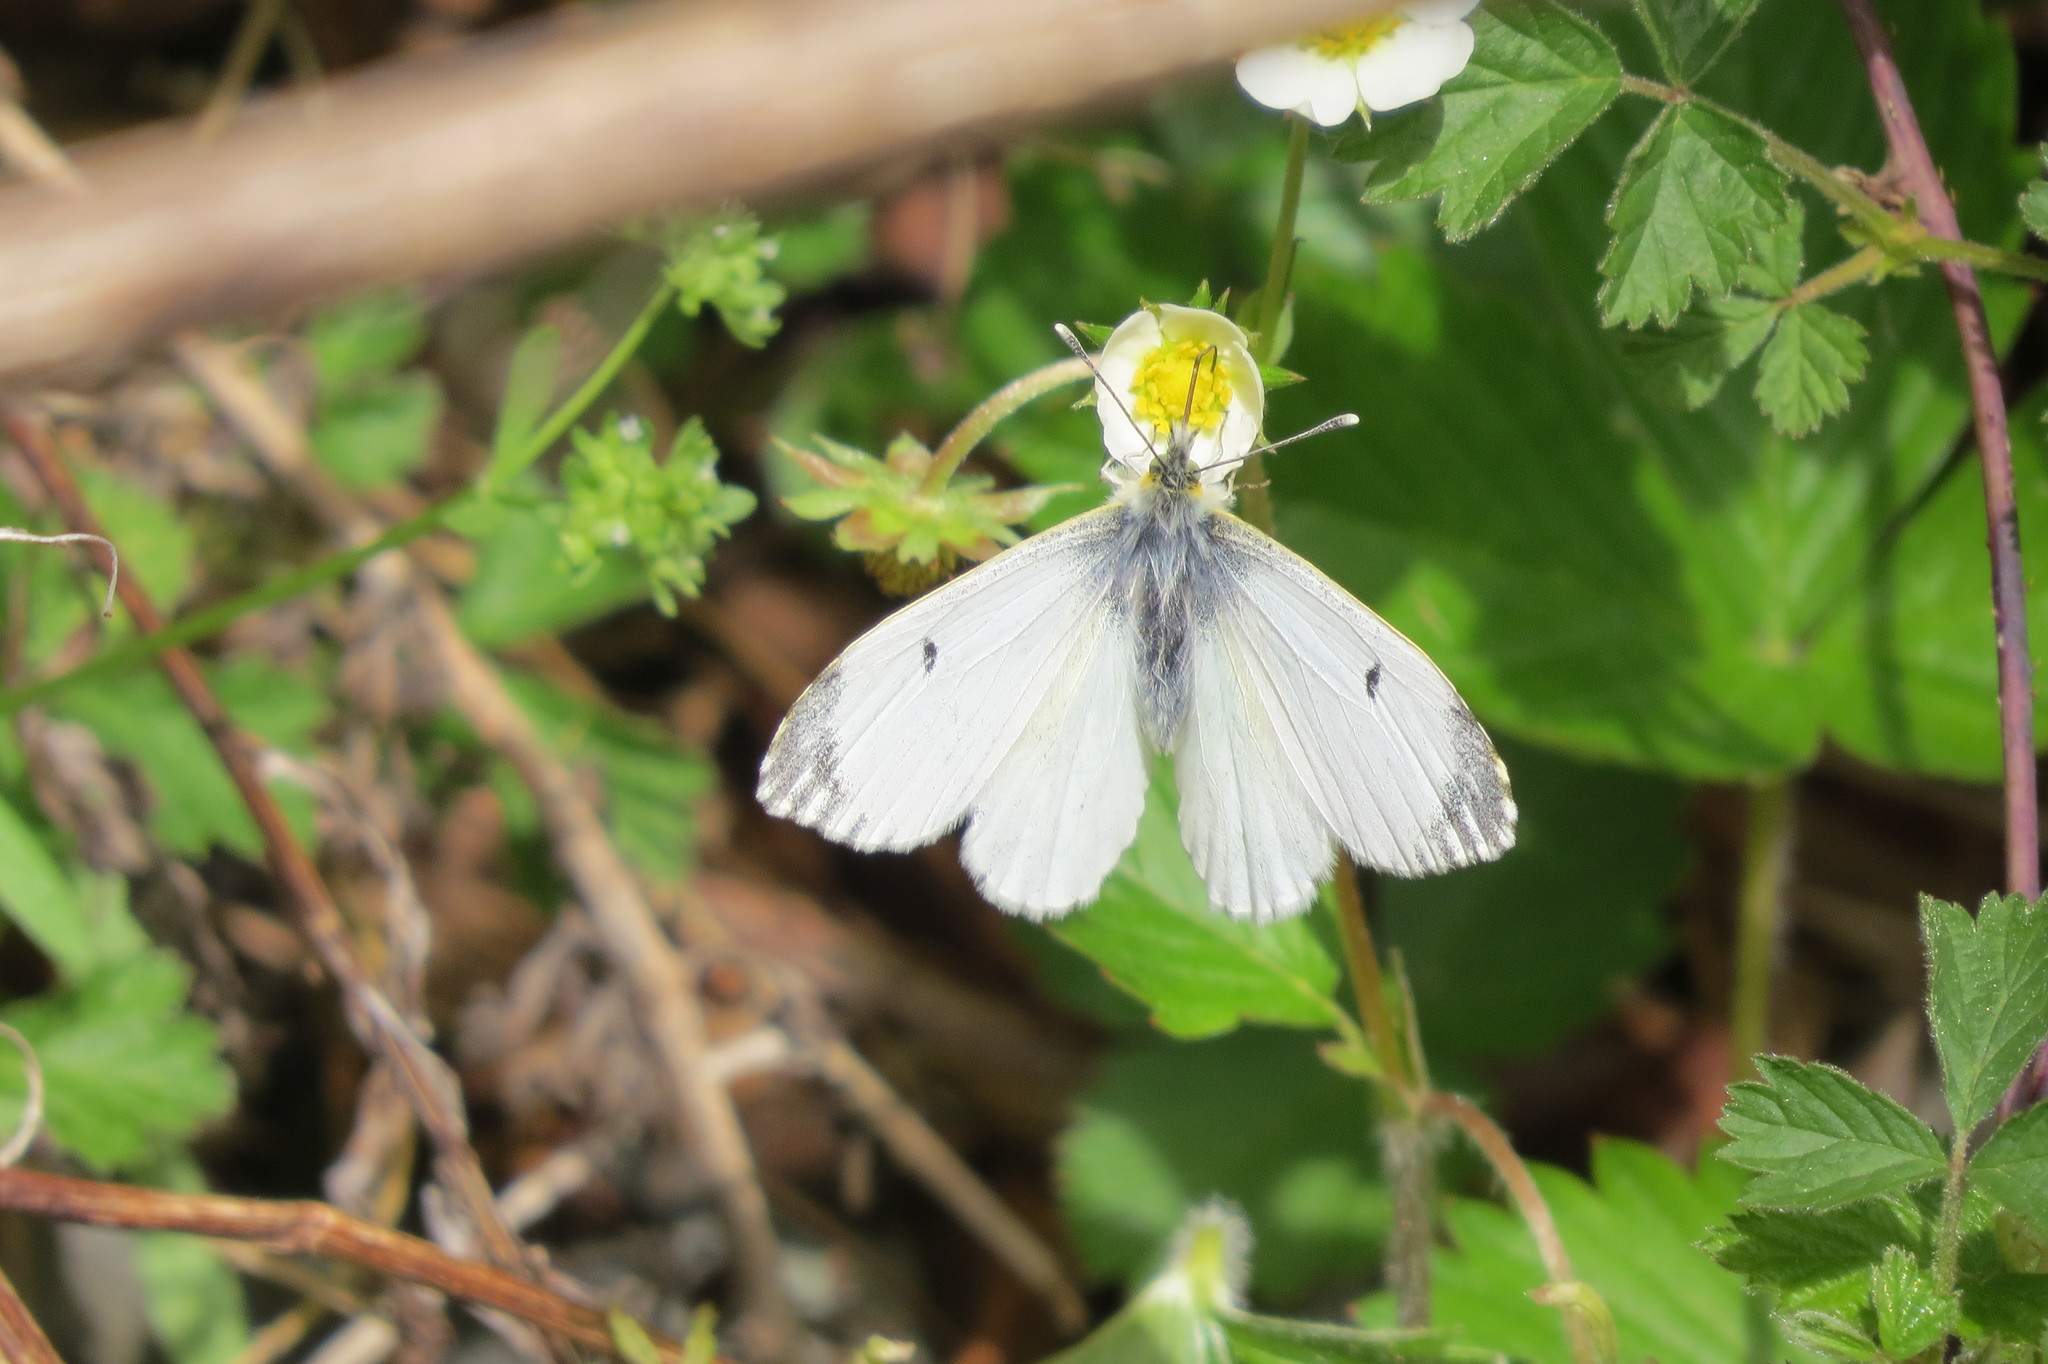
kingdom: Animalia
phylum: Arthropoda
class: Insecta
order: Lepidoptera
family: Pieridae
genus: Anthocharis
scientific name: Anthocharis cardamines
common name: Orange-tip
